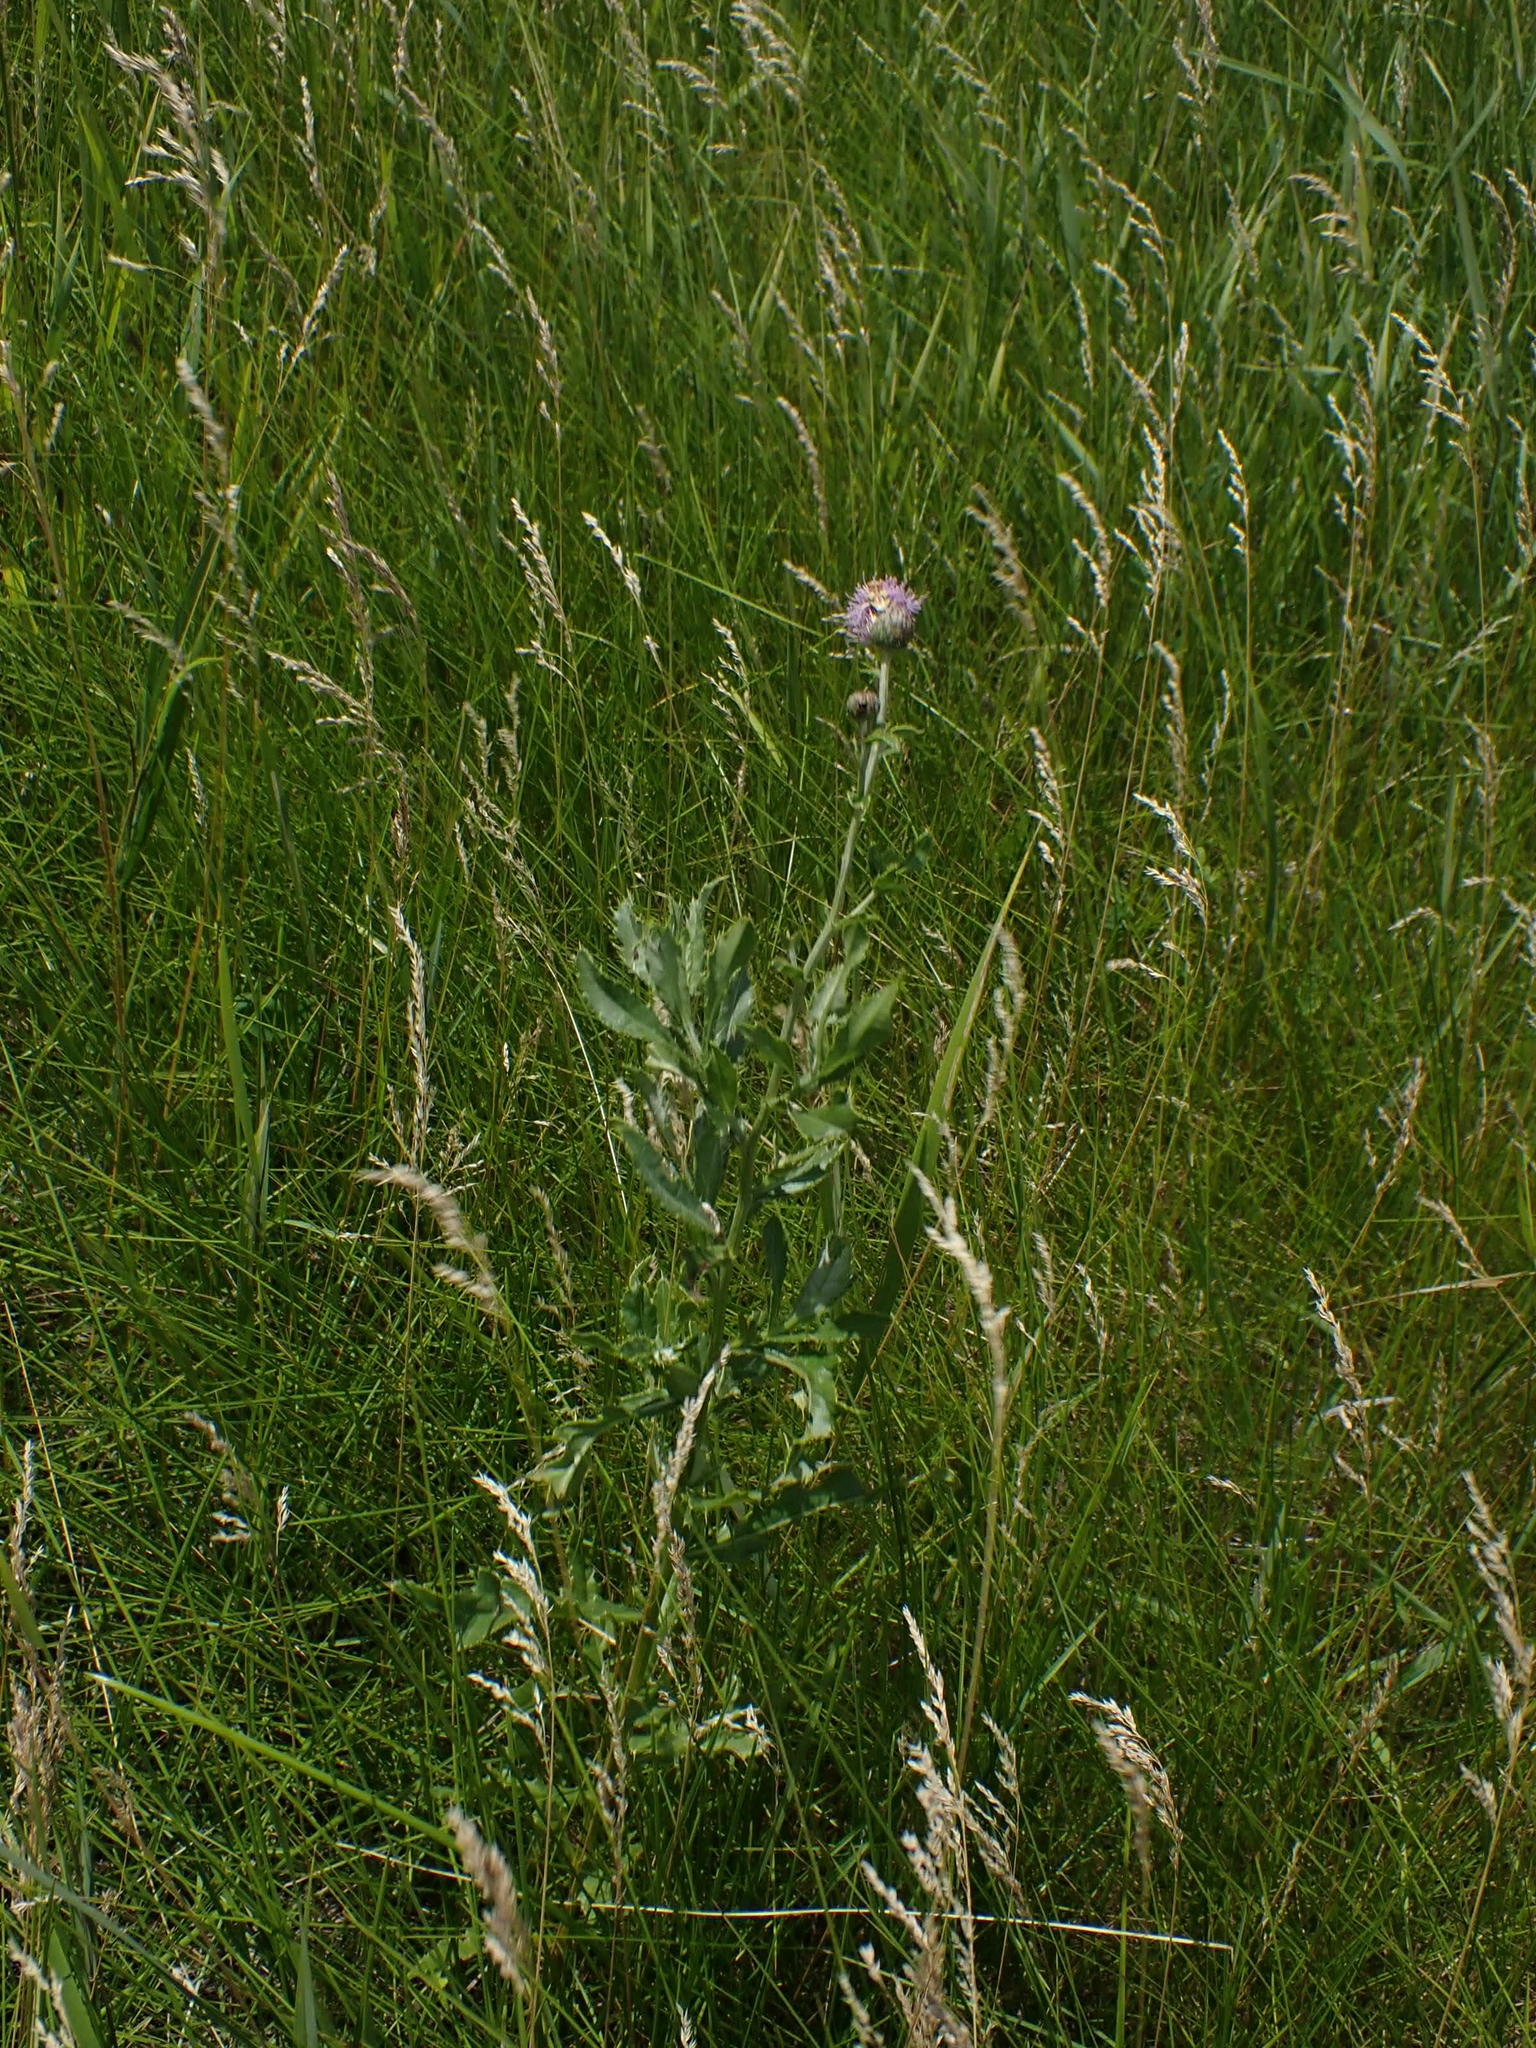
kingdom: Plantae
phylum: Tracheophyta
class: Magnoliopsida
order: Asterales
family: Asteraceae
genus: Cirsium
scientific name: Cirsium arvense
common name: Creeping thistle
